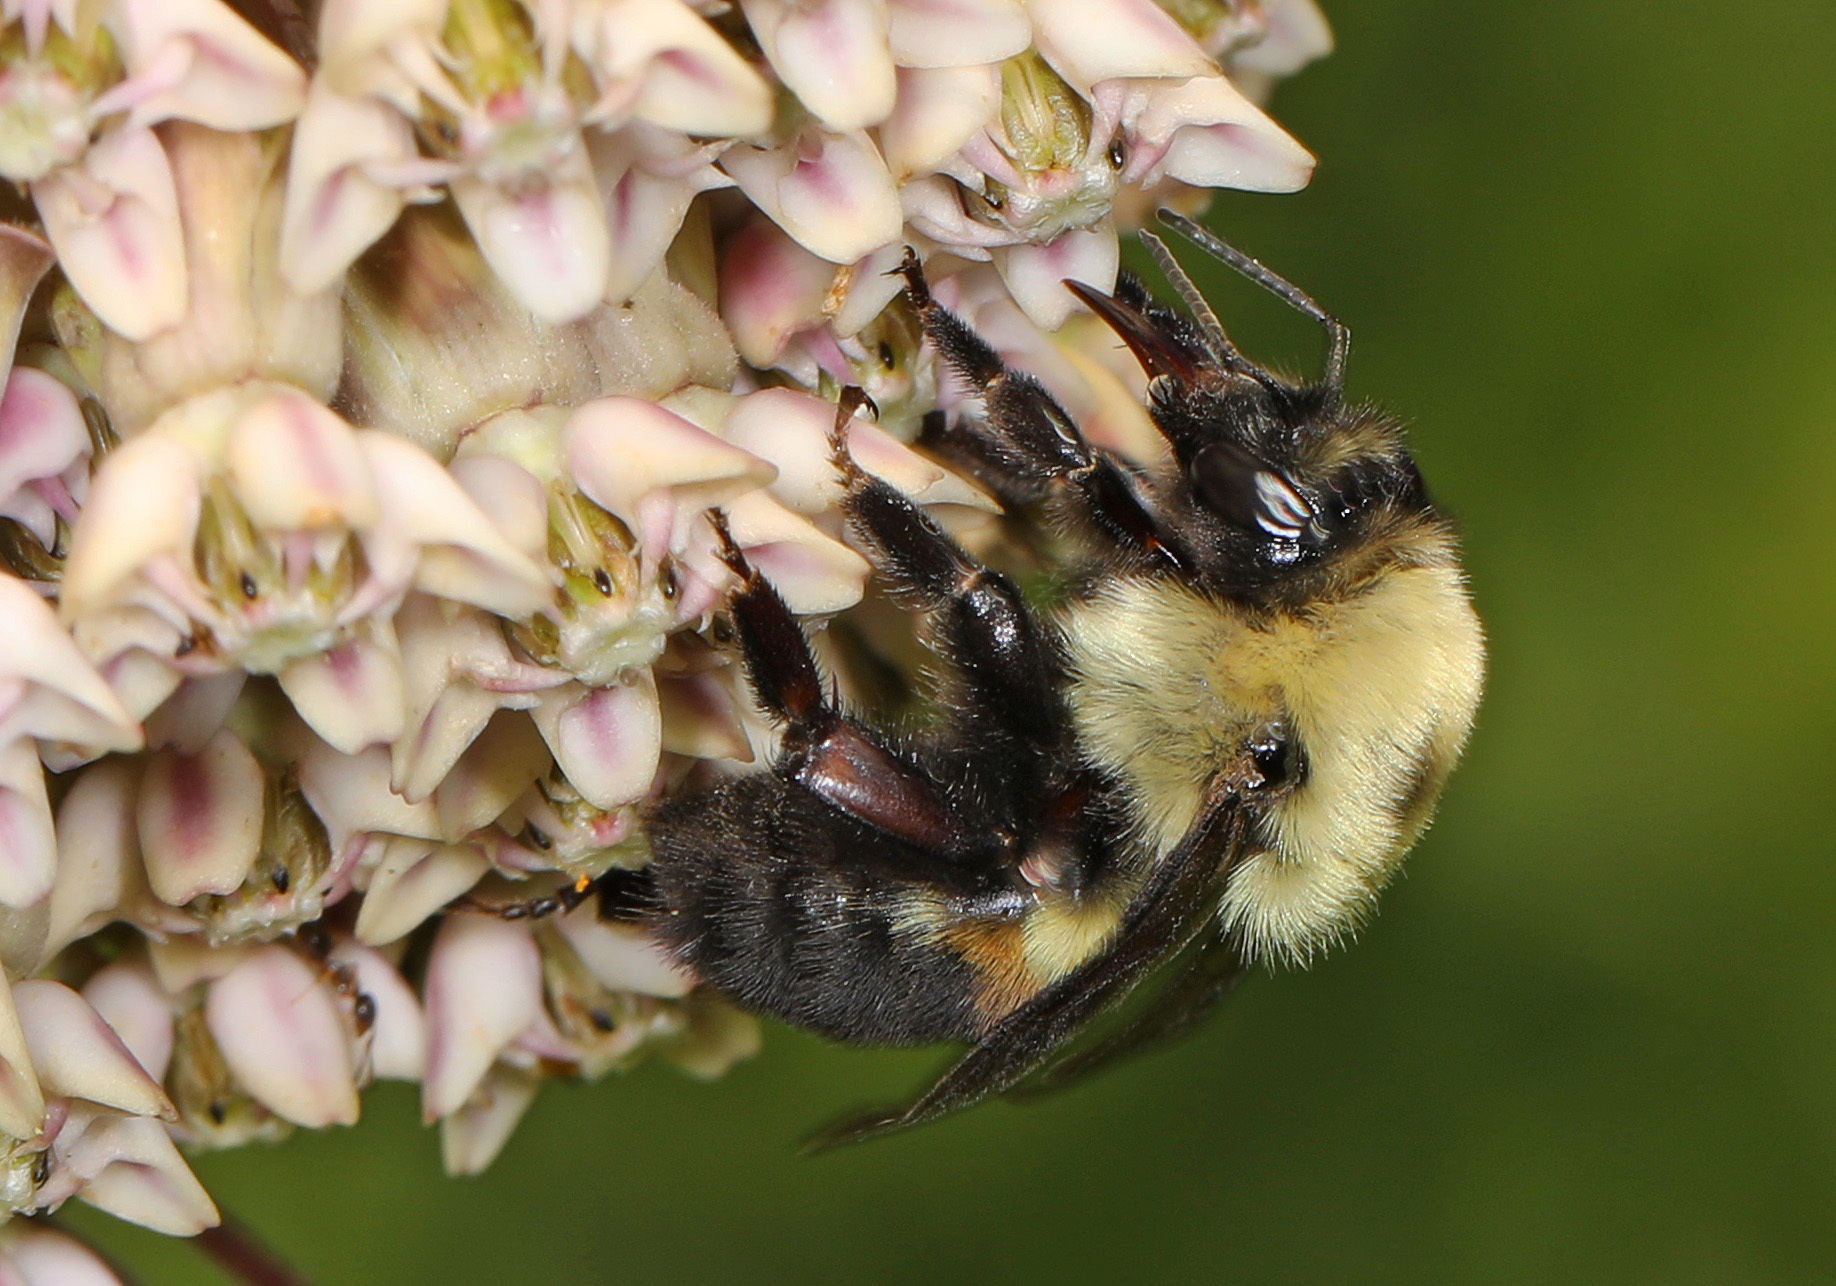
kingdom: Animalia
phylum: Arthropoda
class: Insecta
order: Hymenoptera
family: Apidae
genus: Bombus
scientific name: Bombus griseocollis
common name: Brown-belted bumble bee
